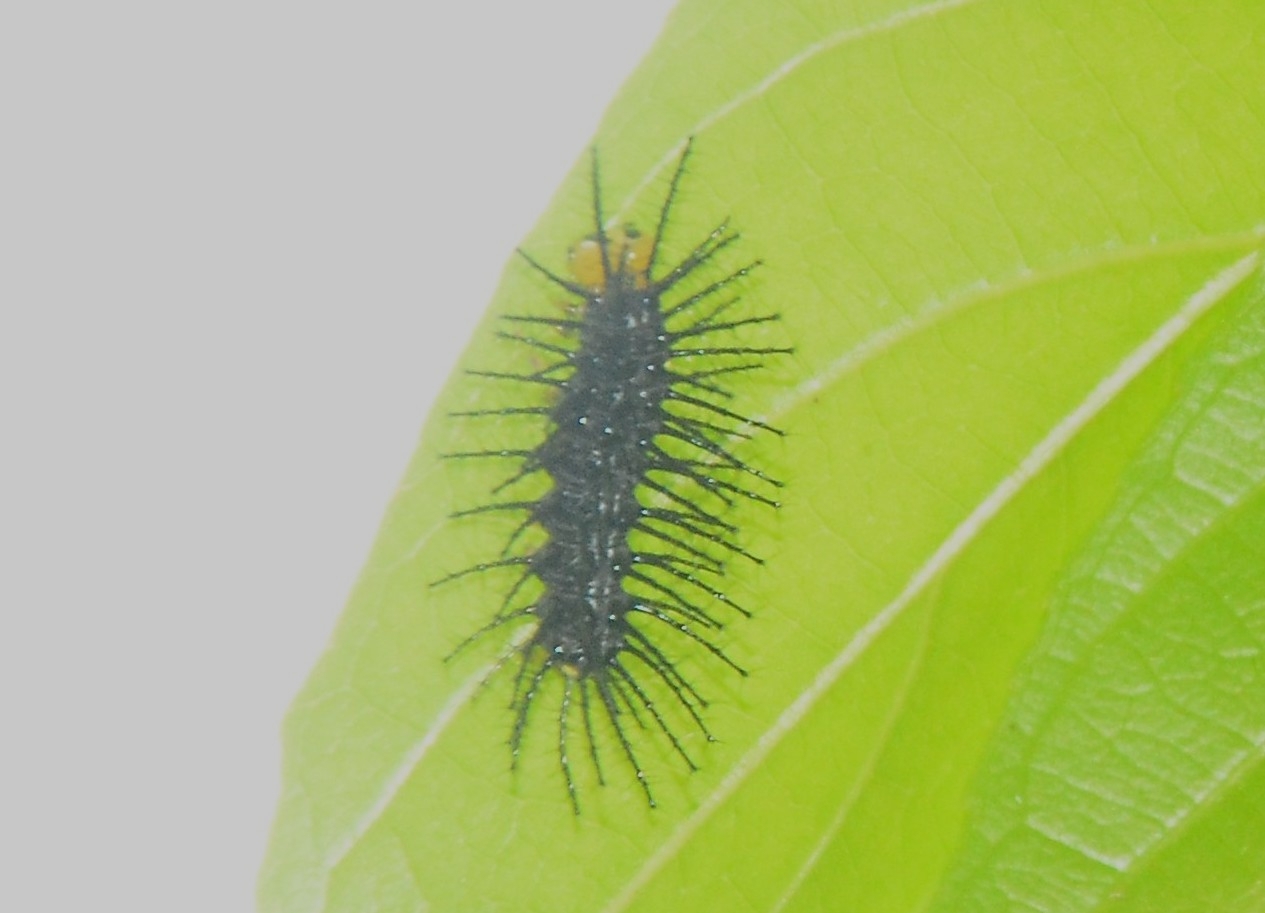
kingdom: Animalia
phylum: Arthropoda
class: Insecta
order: Lepidoptera
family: Nymphalidae
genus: Cirrochroa
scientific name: Cirrochroa thais
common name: Tamil yeoman
